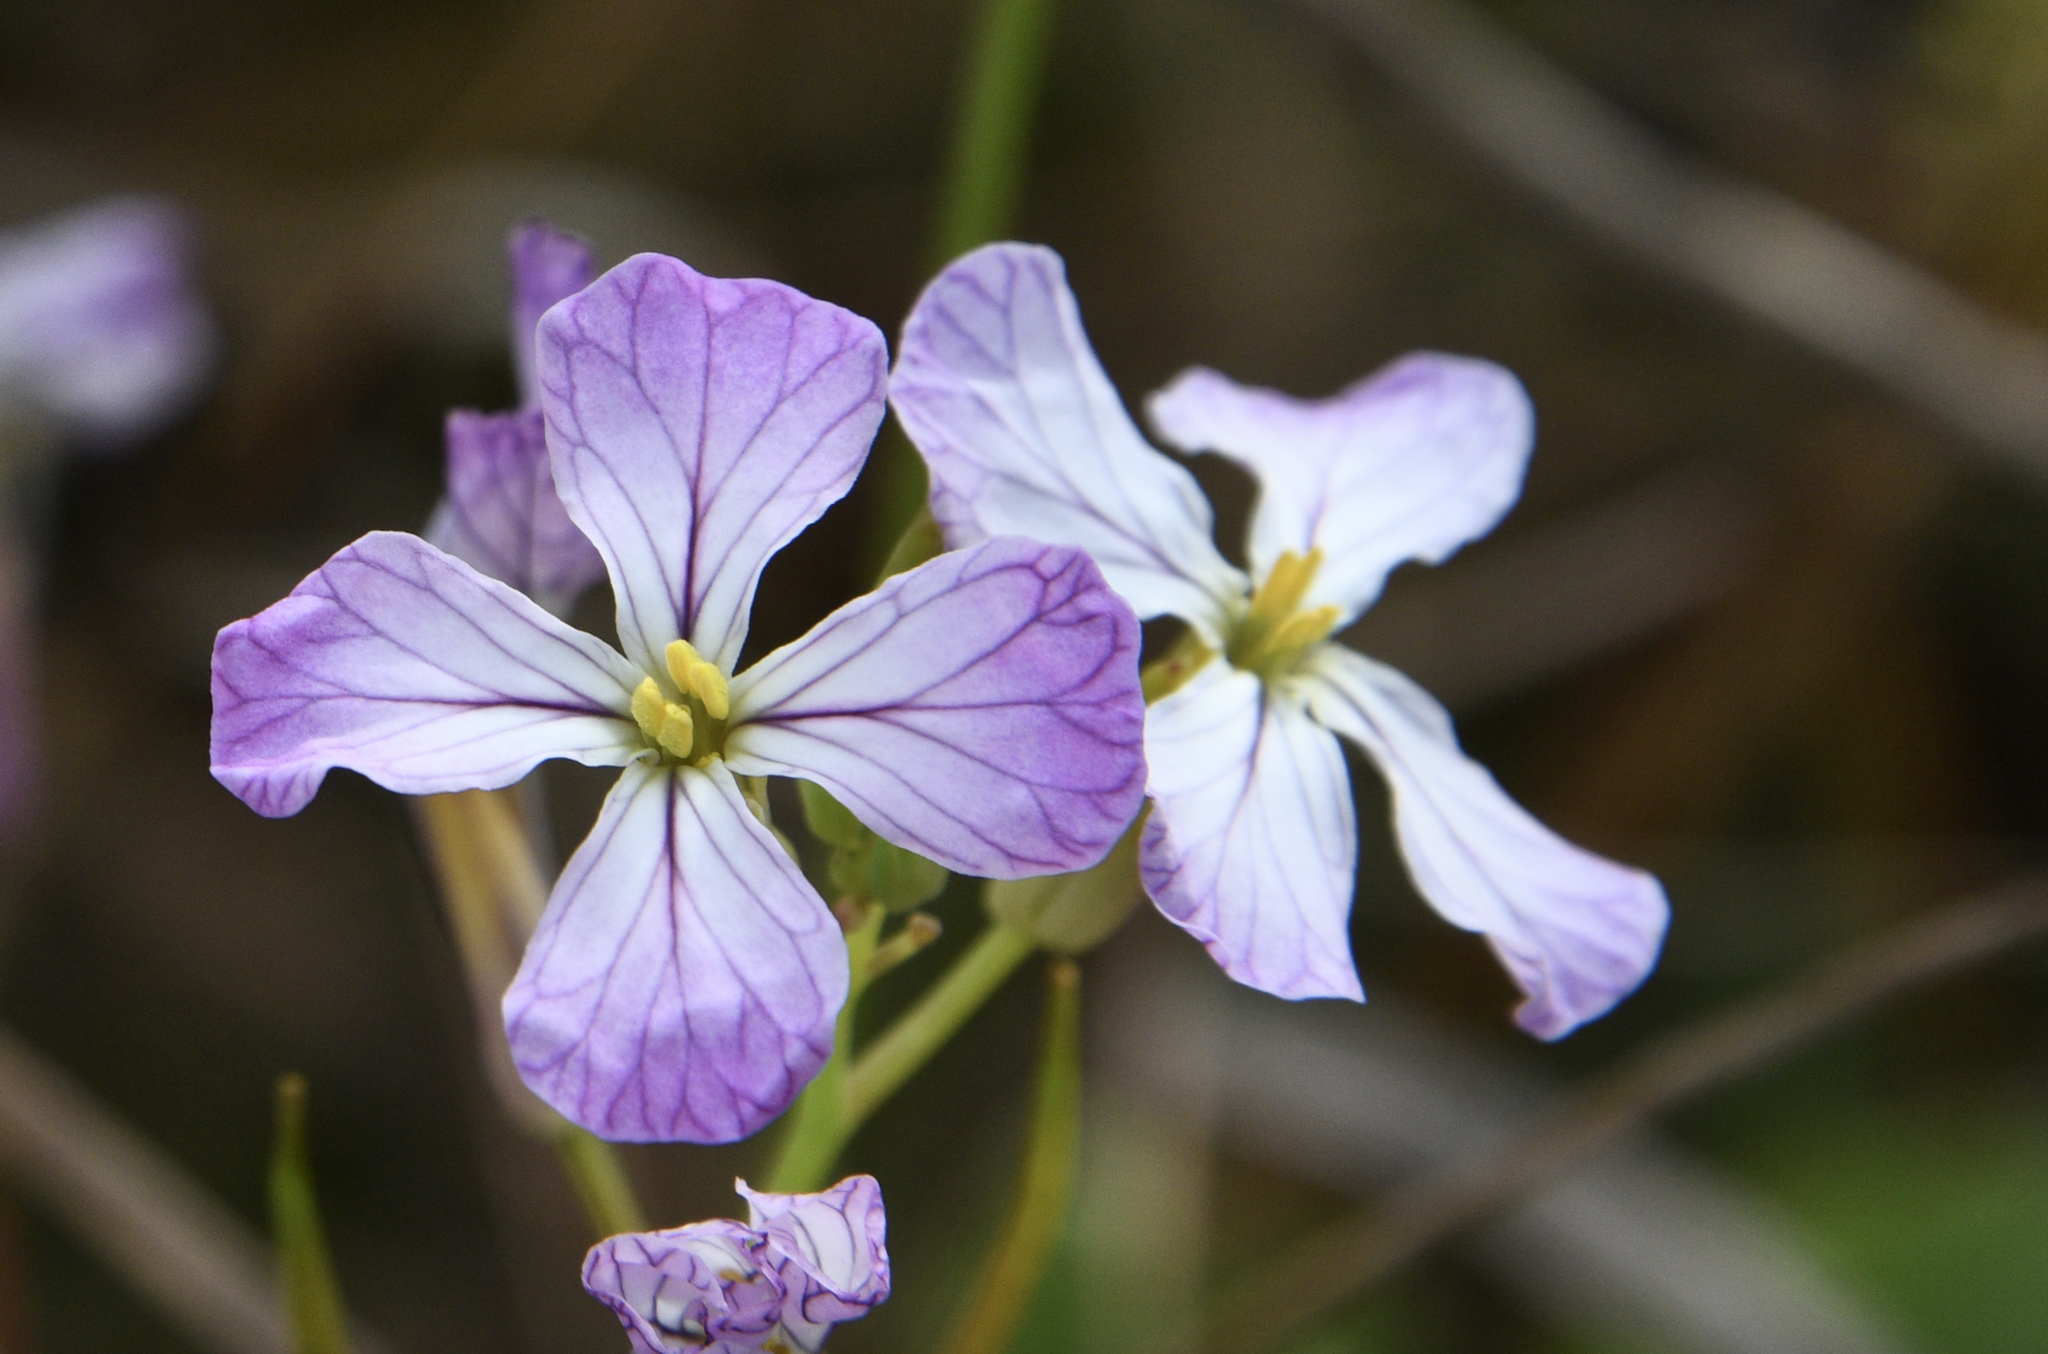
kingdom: Plantae
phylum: Tracheophyta
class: Magnoliopsida
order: Brassicales
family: Brassicaceae
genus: Raphanus
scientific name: Raphanus sativus
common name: Cultivated radish
